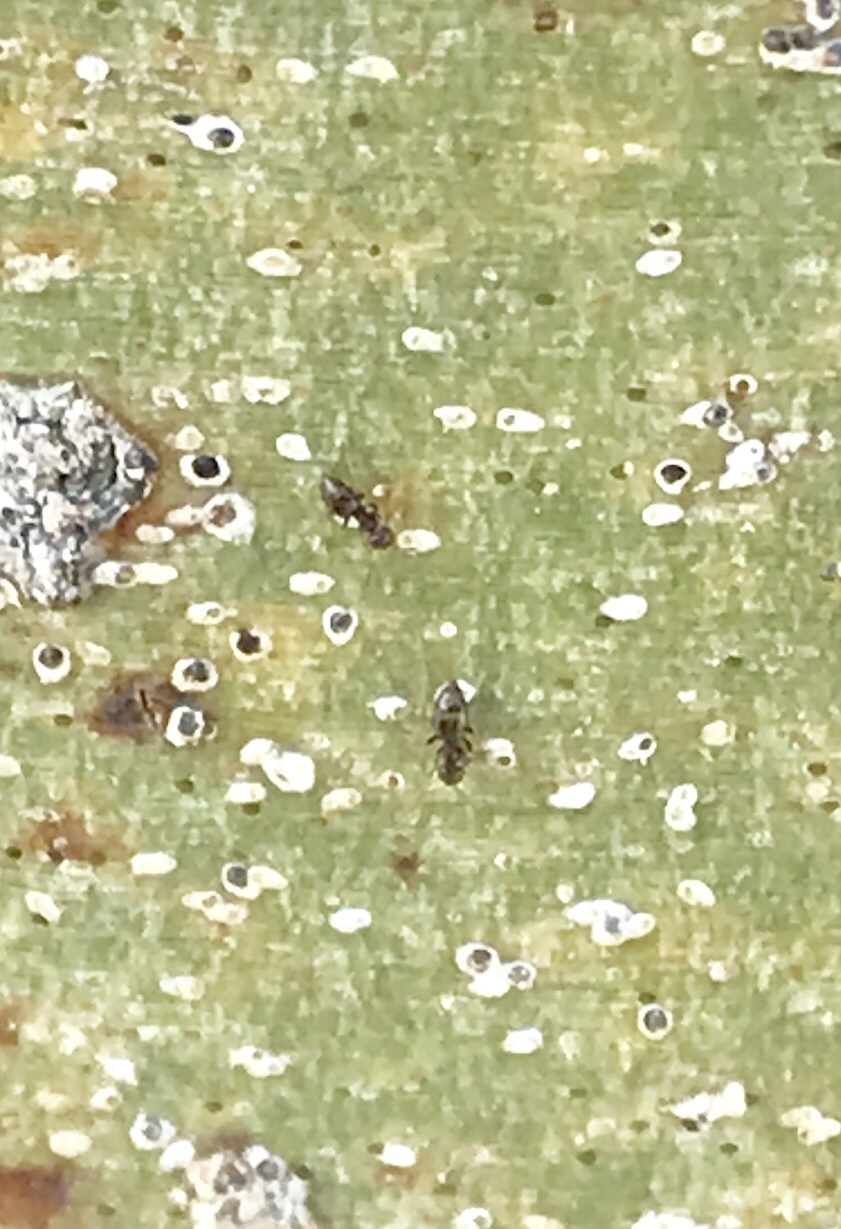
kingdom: Animalia
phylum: Arthropoda
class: Insecta
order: Hymenoptera
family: Formicidae
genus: Brachymyrmex
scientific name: Brachymyrmex patagonicus
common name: Dark rover ant
